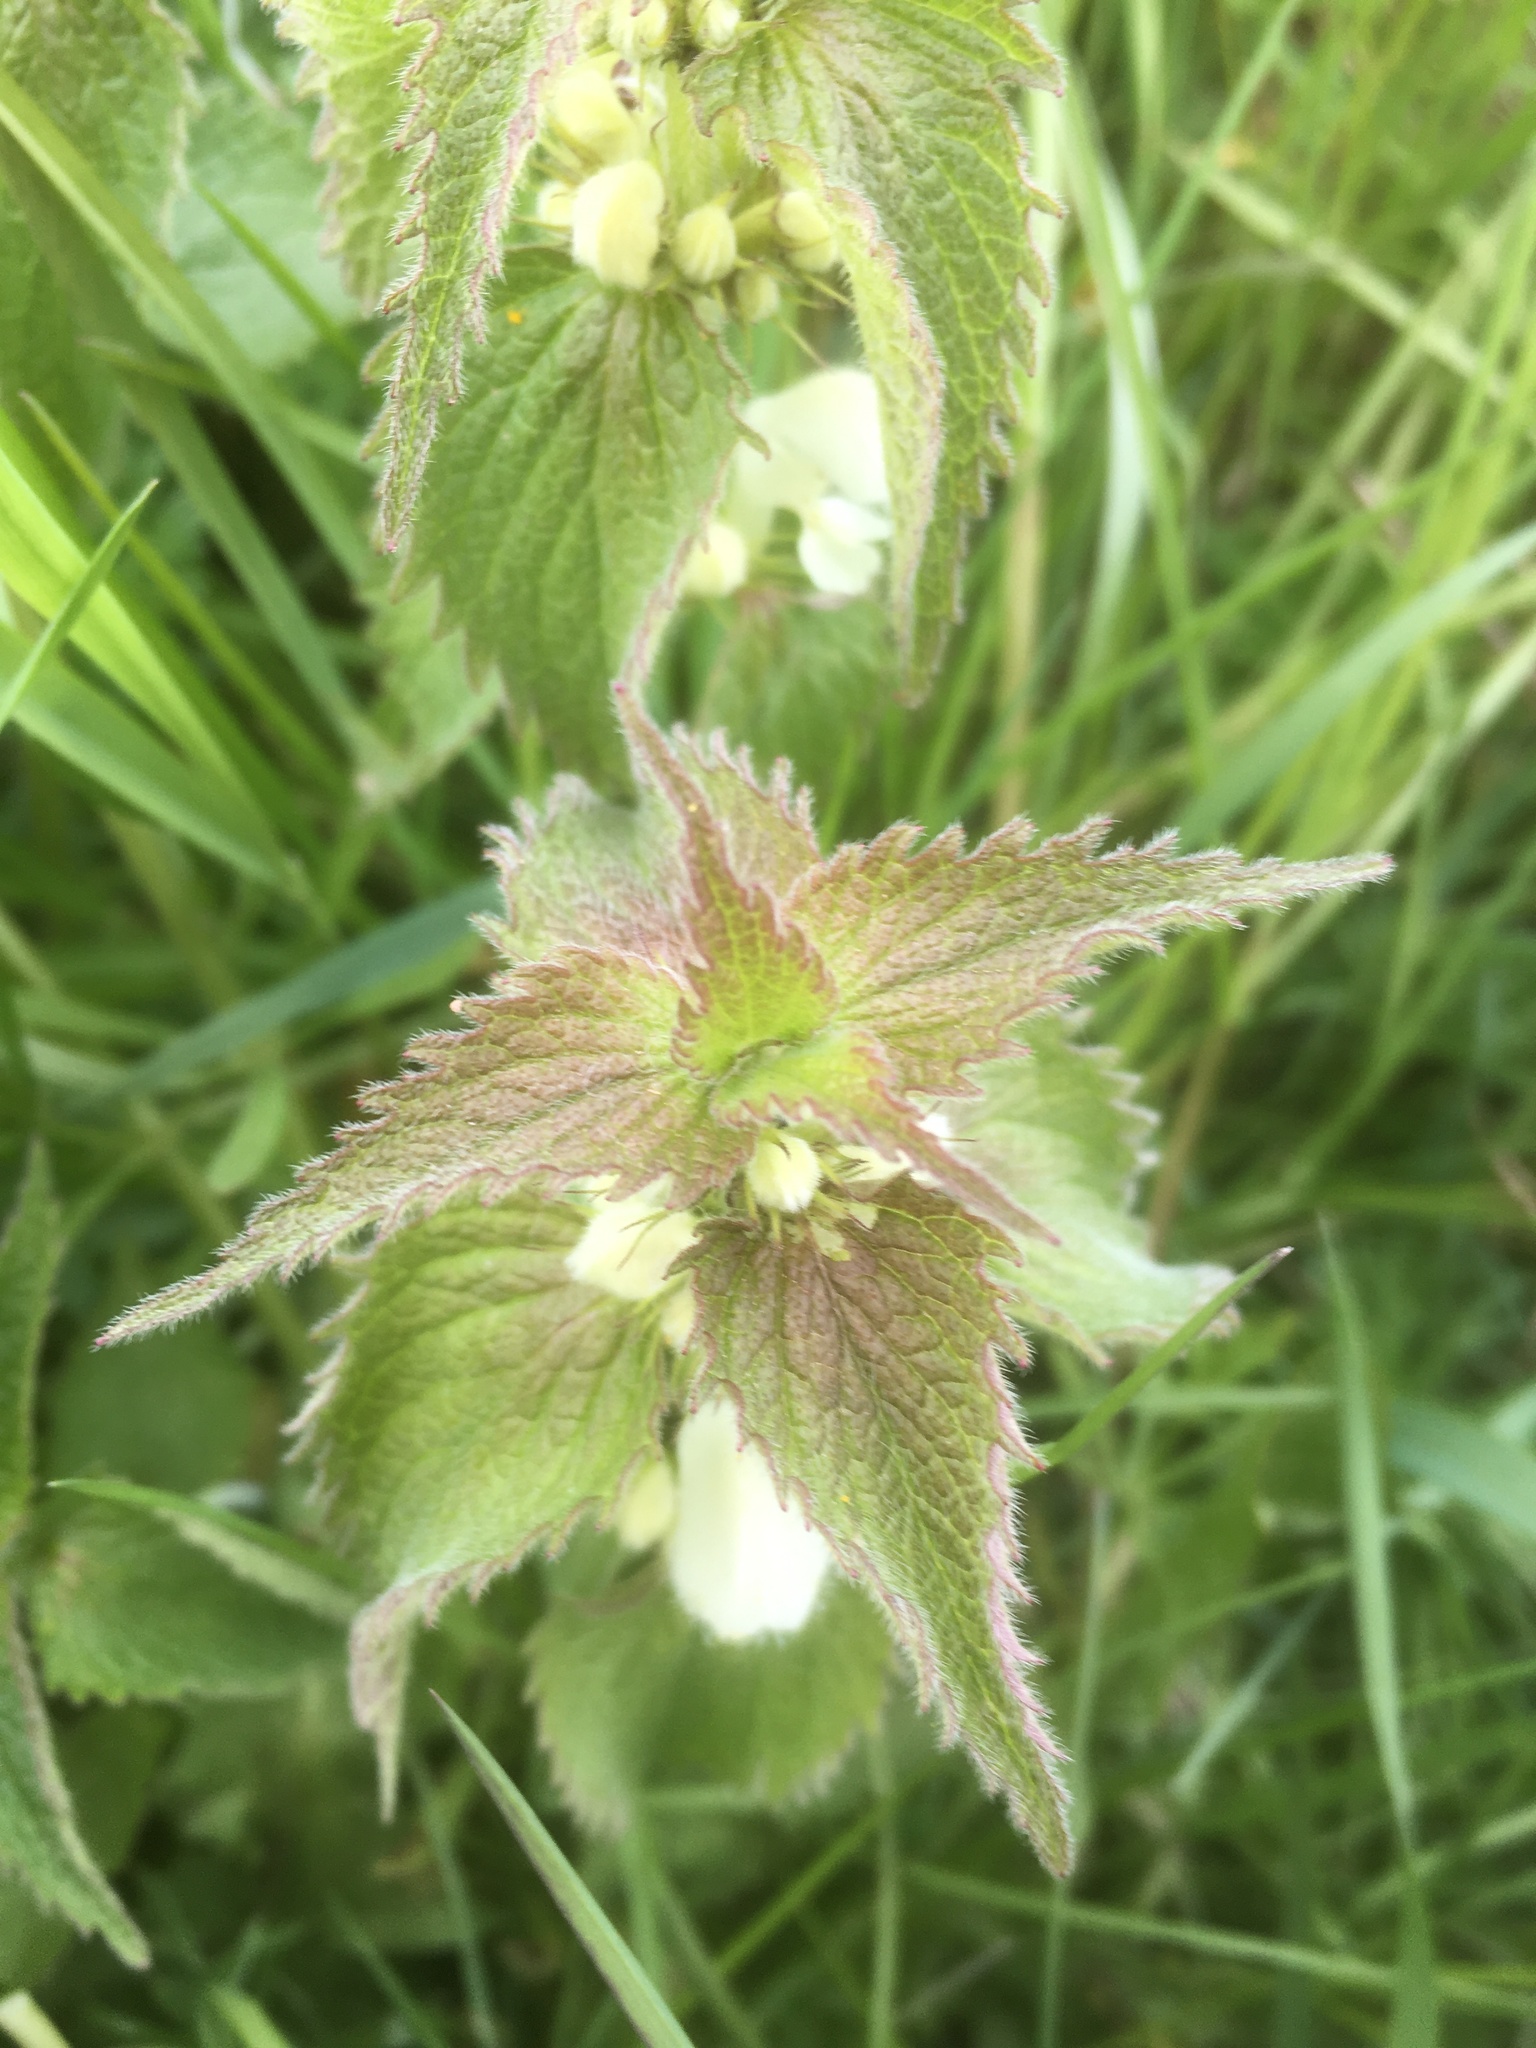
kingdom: Plantae
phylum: Tracheophyta
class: Magnoliopsida
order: Lamiales
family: Lamiaceae
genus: Lamium
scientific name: Lamium album
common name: White dead-nettle
